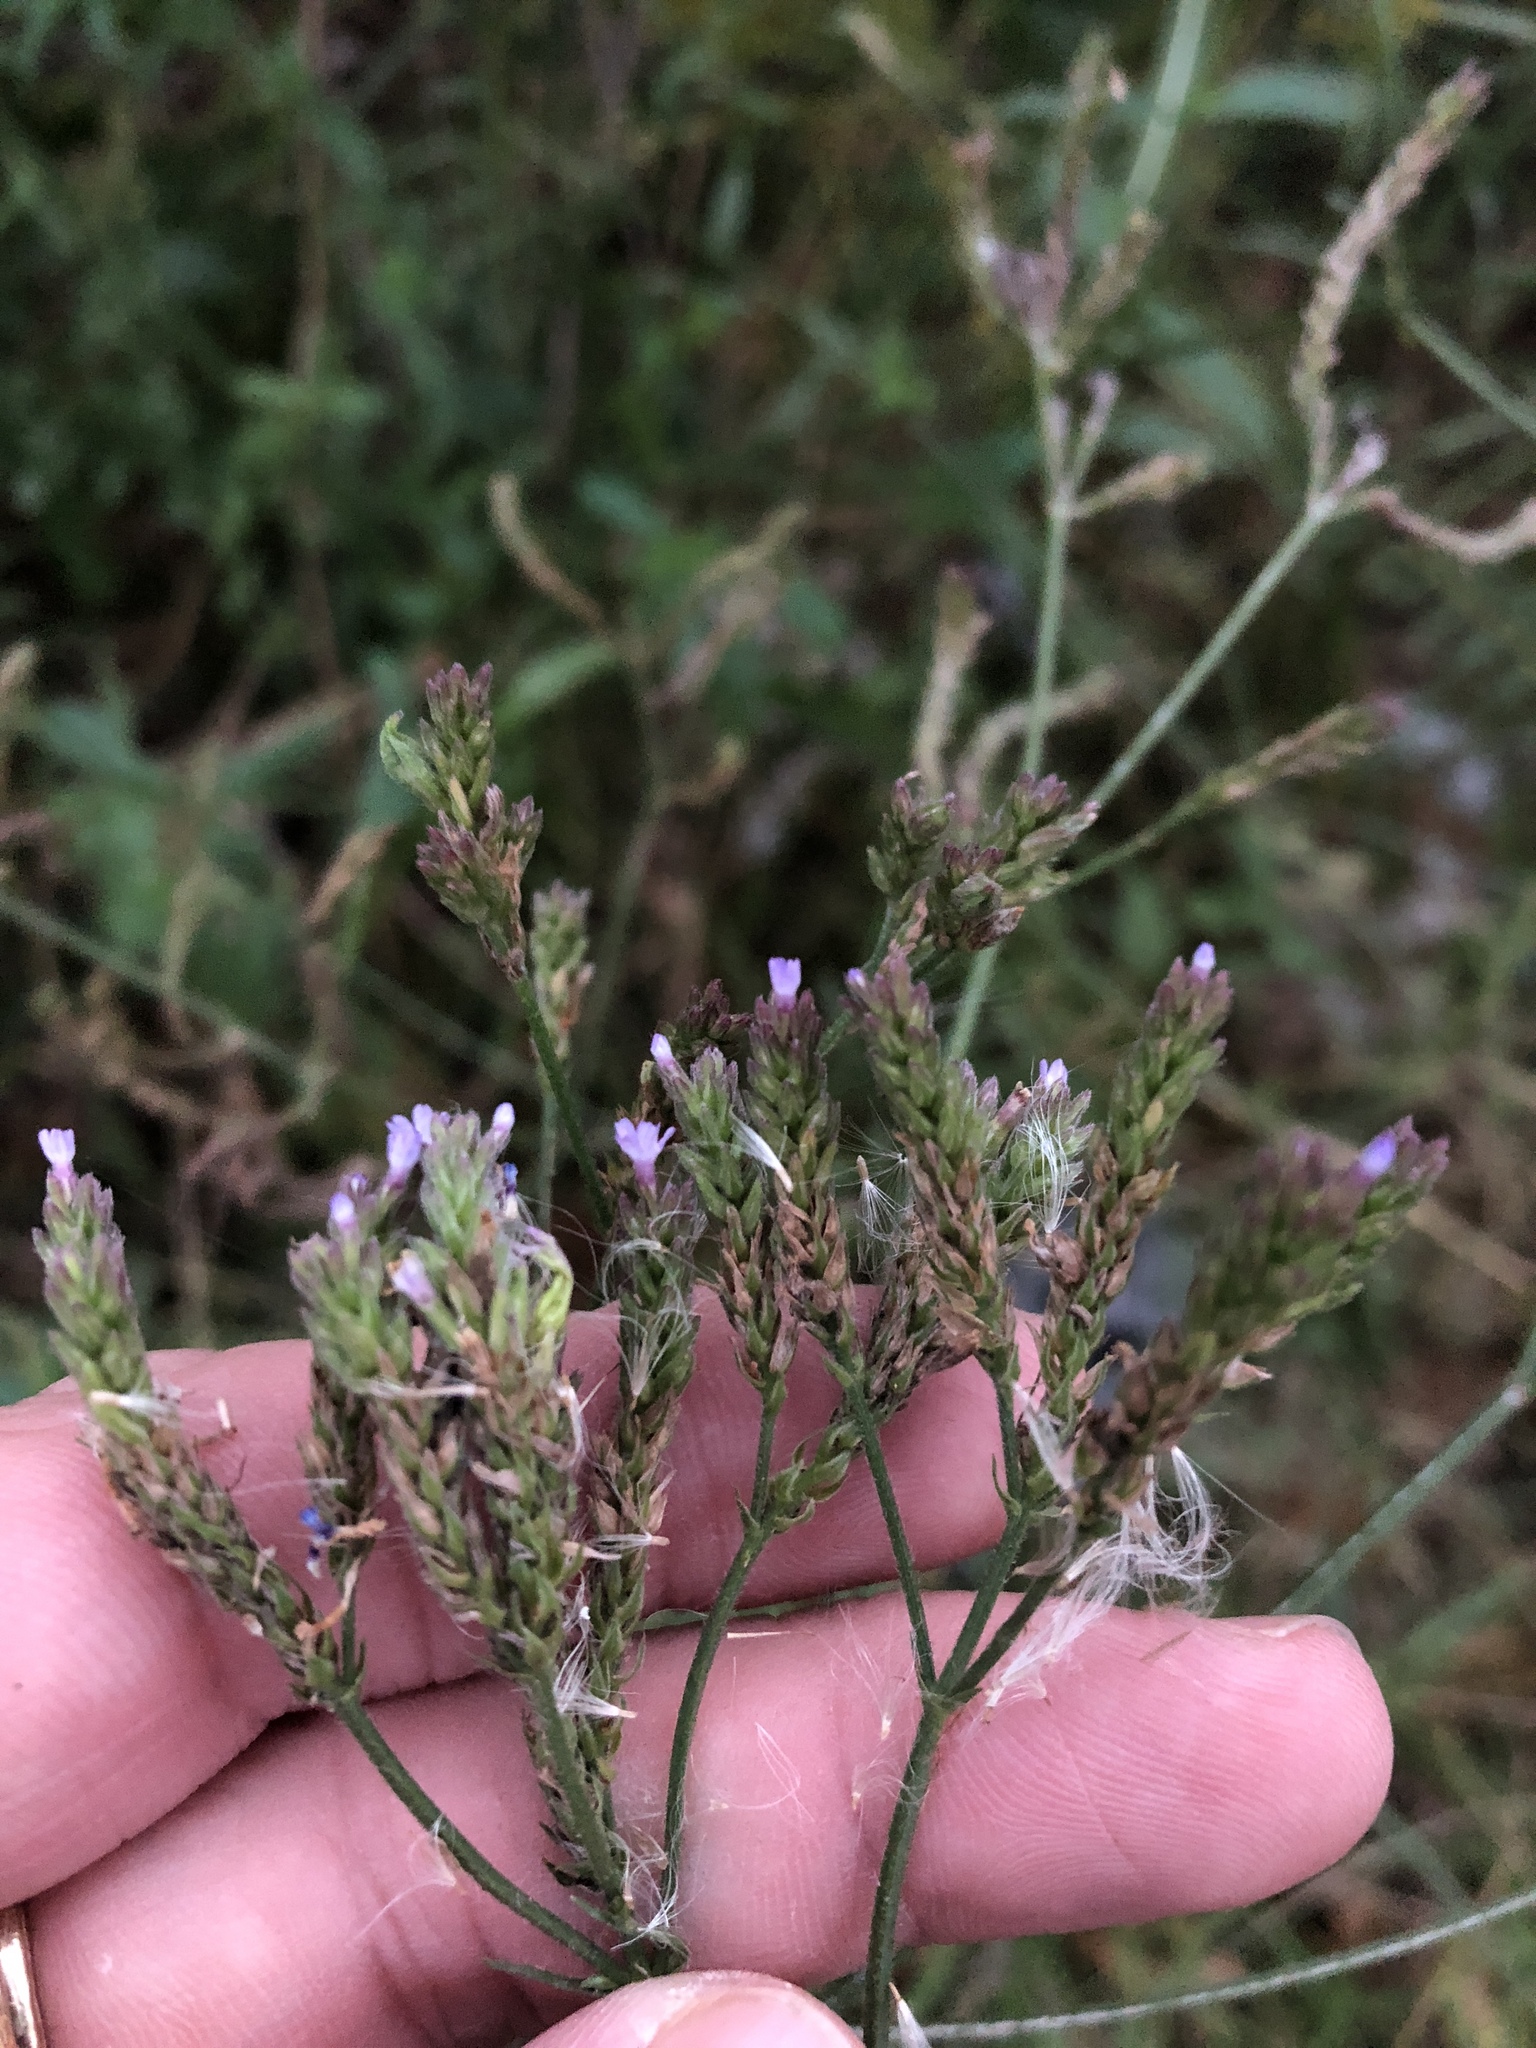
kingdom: Plantae
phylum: Tracheophyta
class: Magnoliopsida
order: Lamiales
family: Verbenaceae
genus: Verbena
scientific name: Verbena brasiliensis
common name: Brazilian vervain
